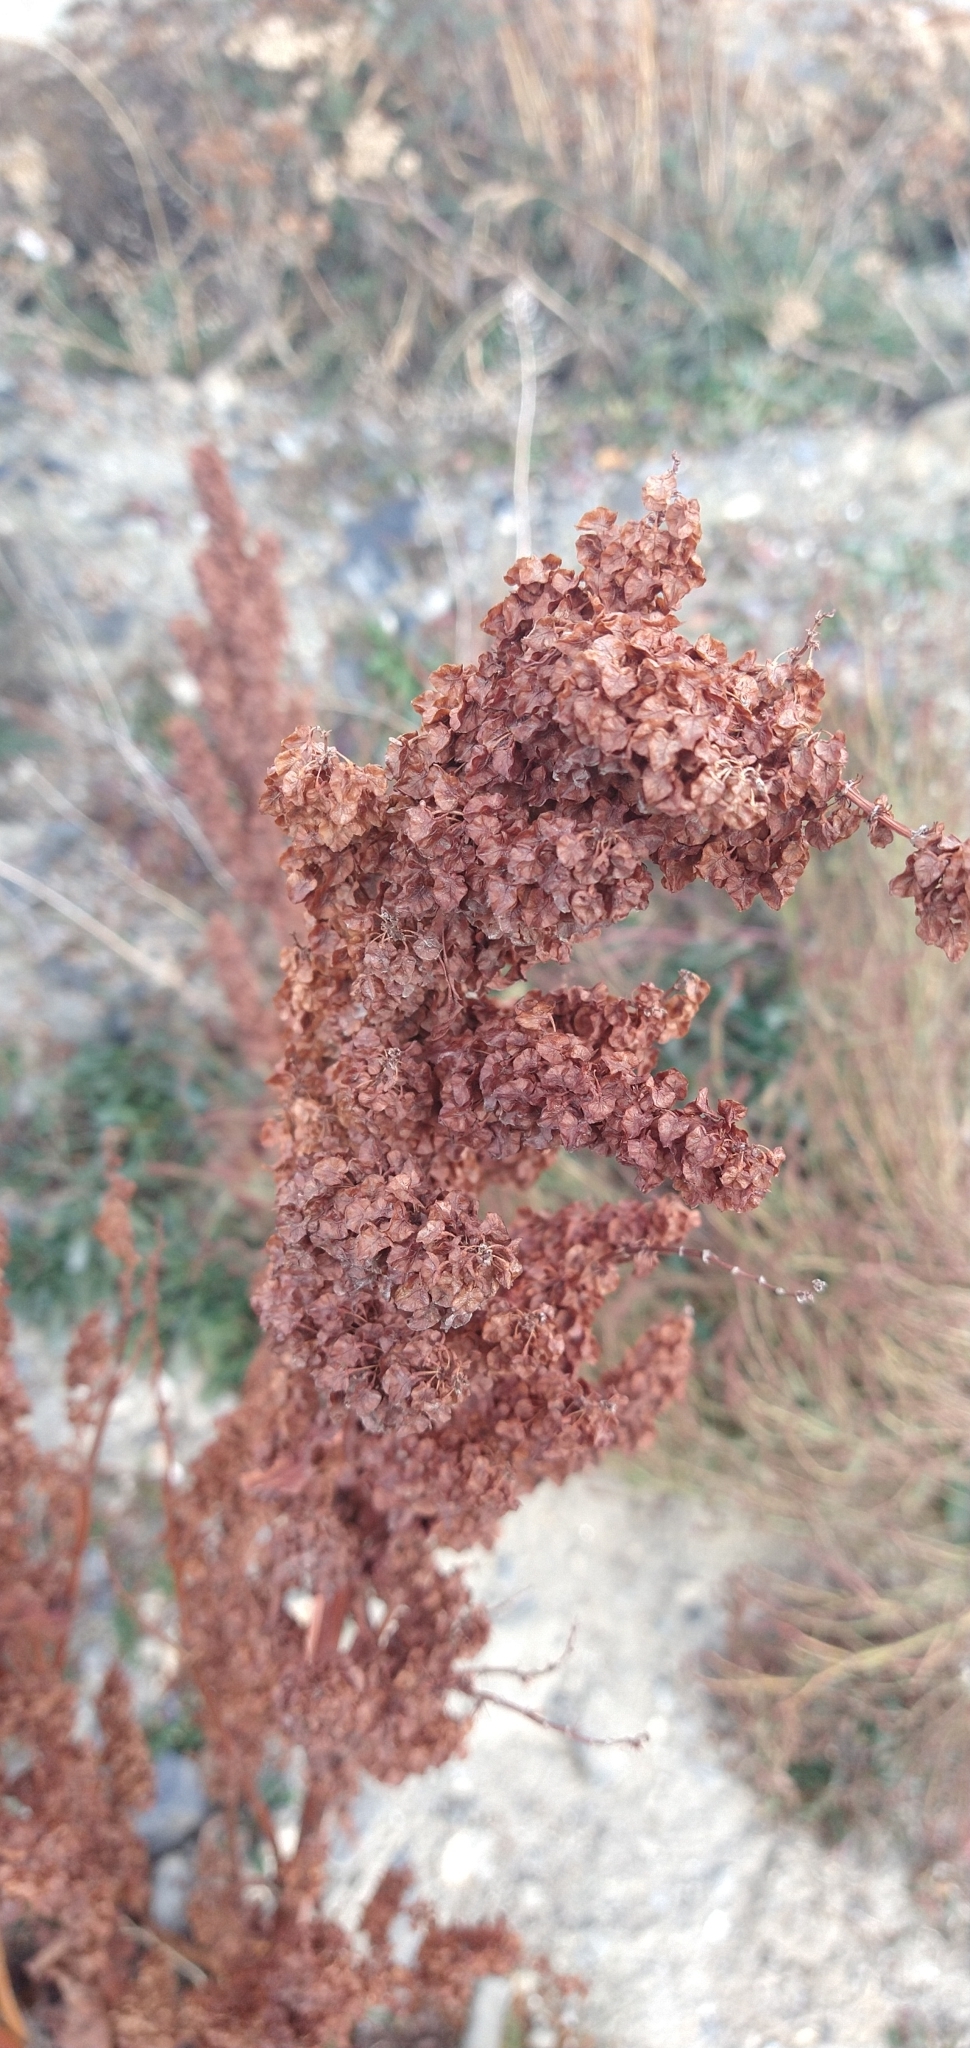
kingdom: Plantae
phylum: Tracheophyta
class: Magnoliopsida
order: Caryophyllales
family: Polygonaceae
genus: Rumex
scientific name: Rumex crispus
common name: Curled dock
